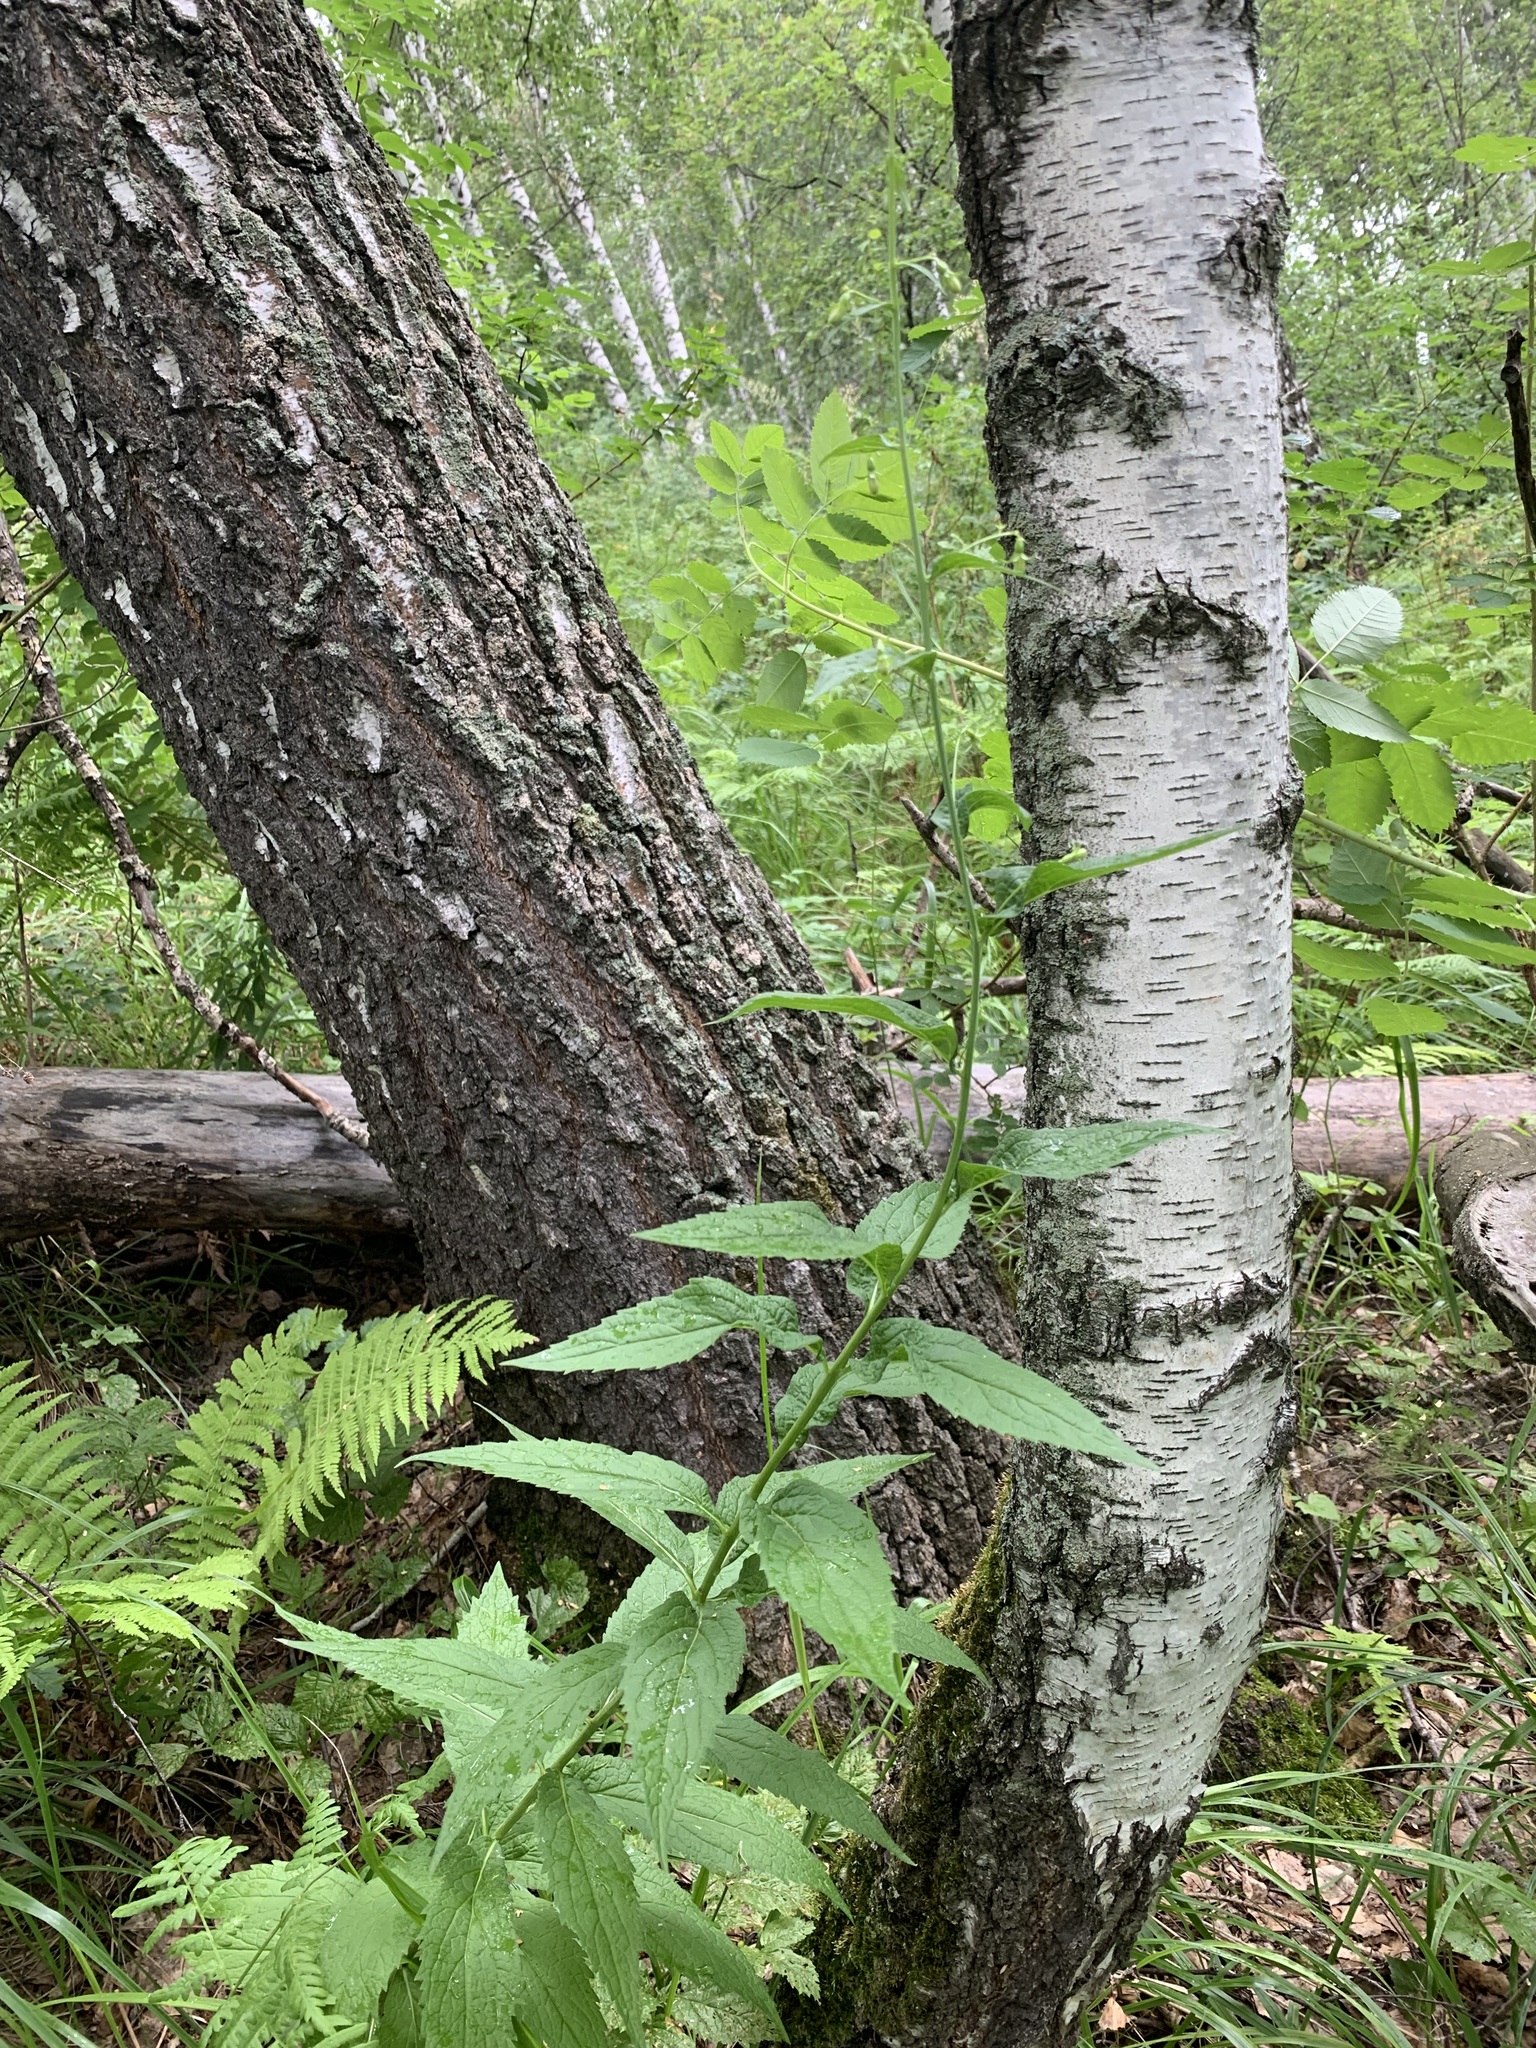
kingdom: Plantae
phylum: Tracheophyta
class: Magnoliopsida
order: Asterales
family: Campanulaceae
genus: Adenophora
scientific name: Adenophora liliifolia
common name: Lilyleaf ladybells
